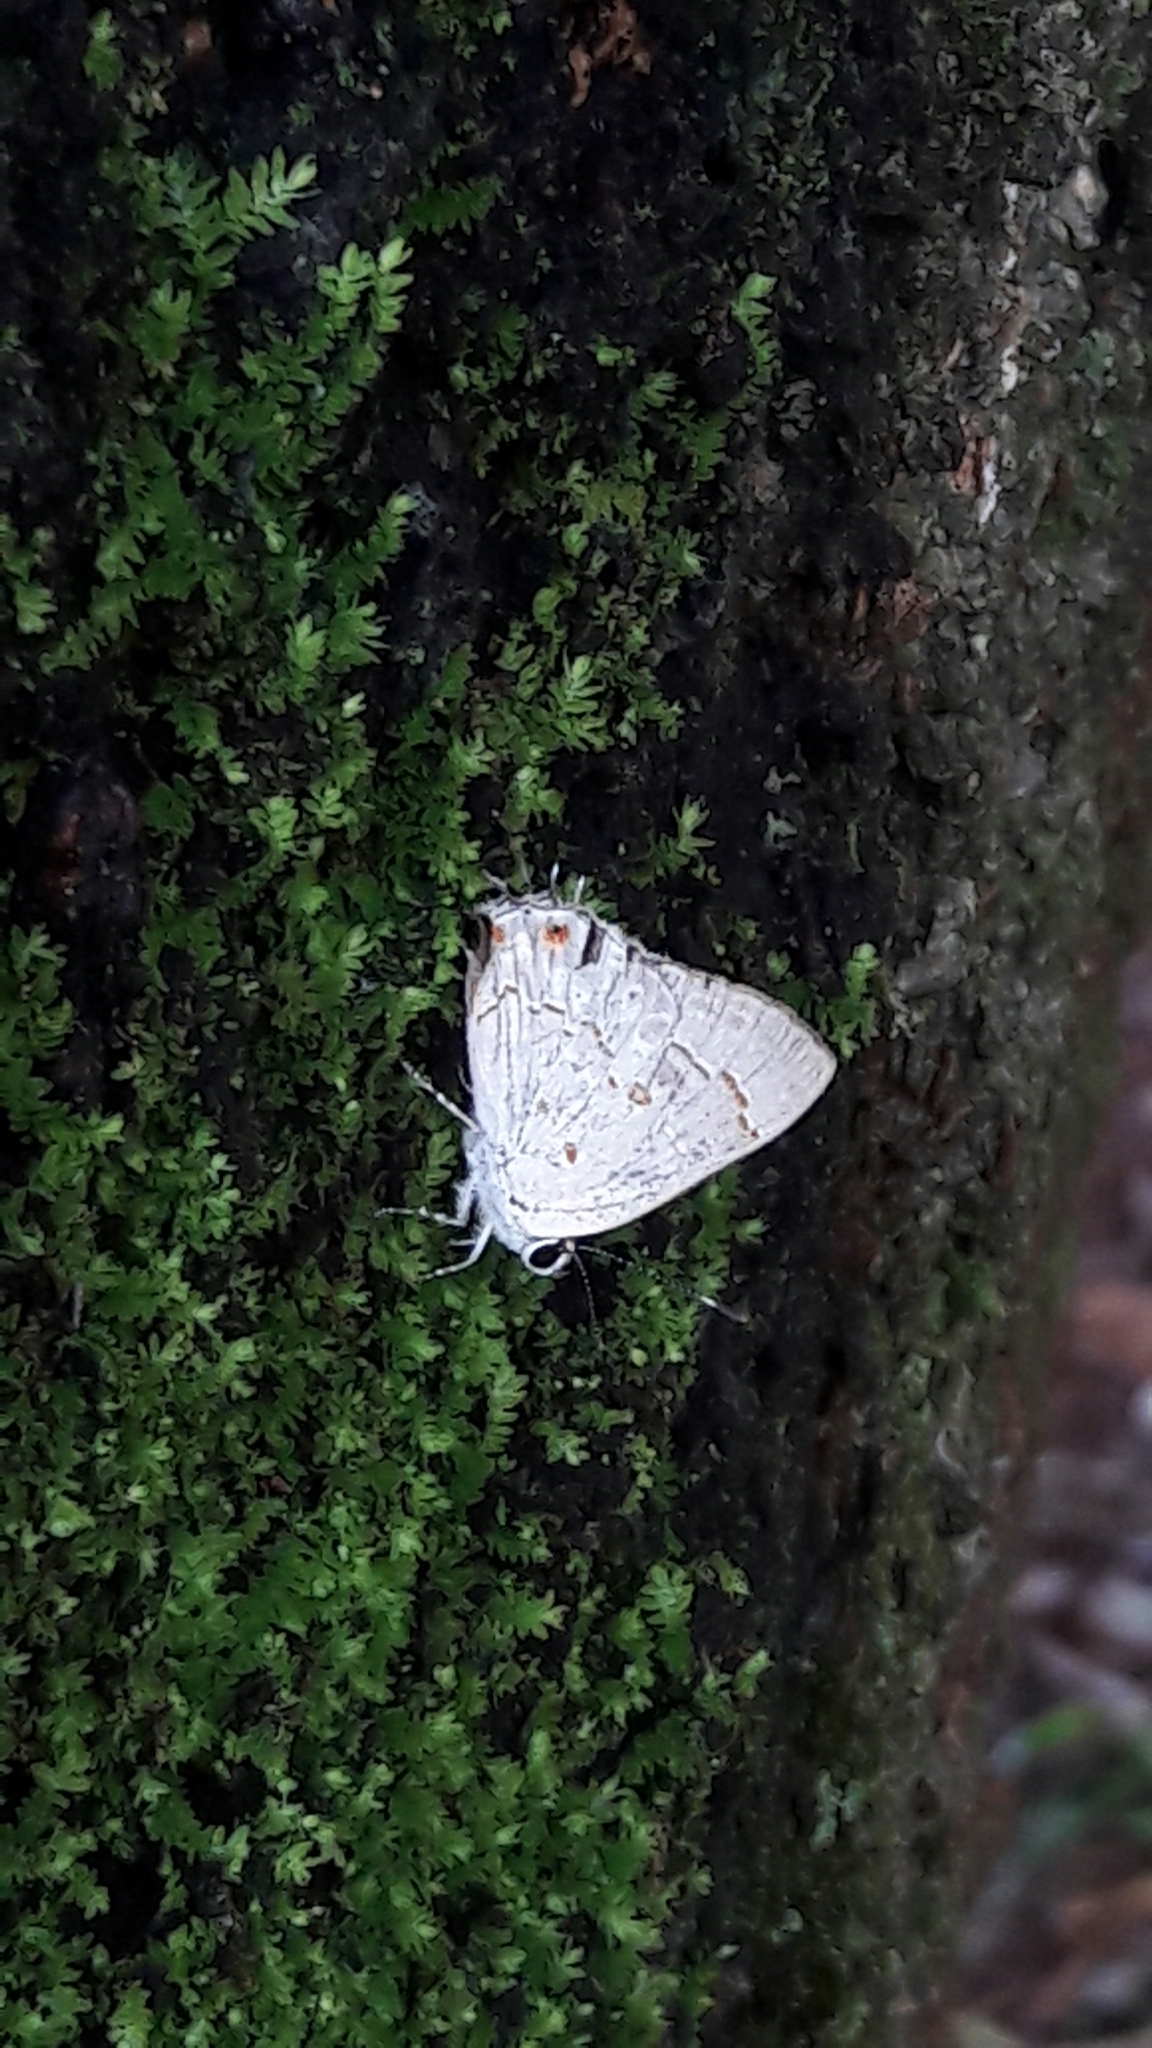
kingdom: Animalia
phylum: Arthropoda
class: Insecta
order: Lepidoptera
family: Lycaenidae
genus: Strymon
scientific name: Strymon
